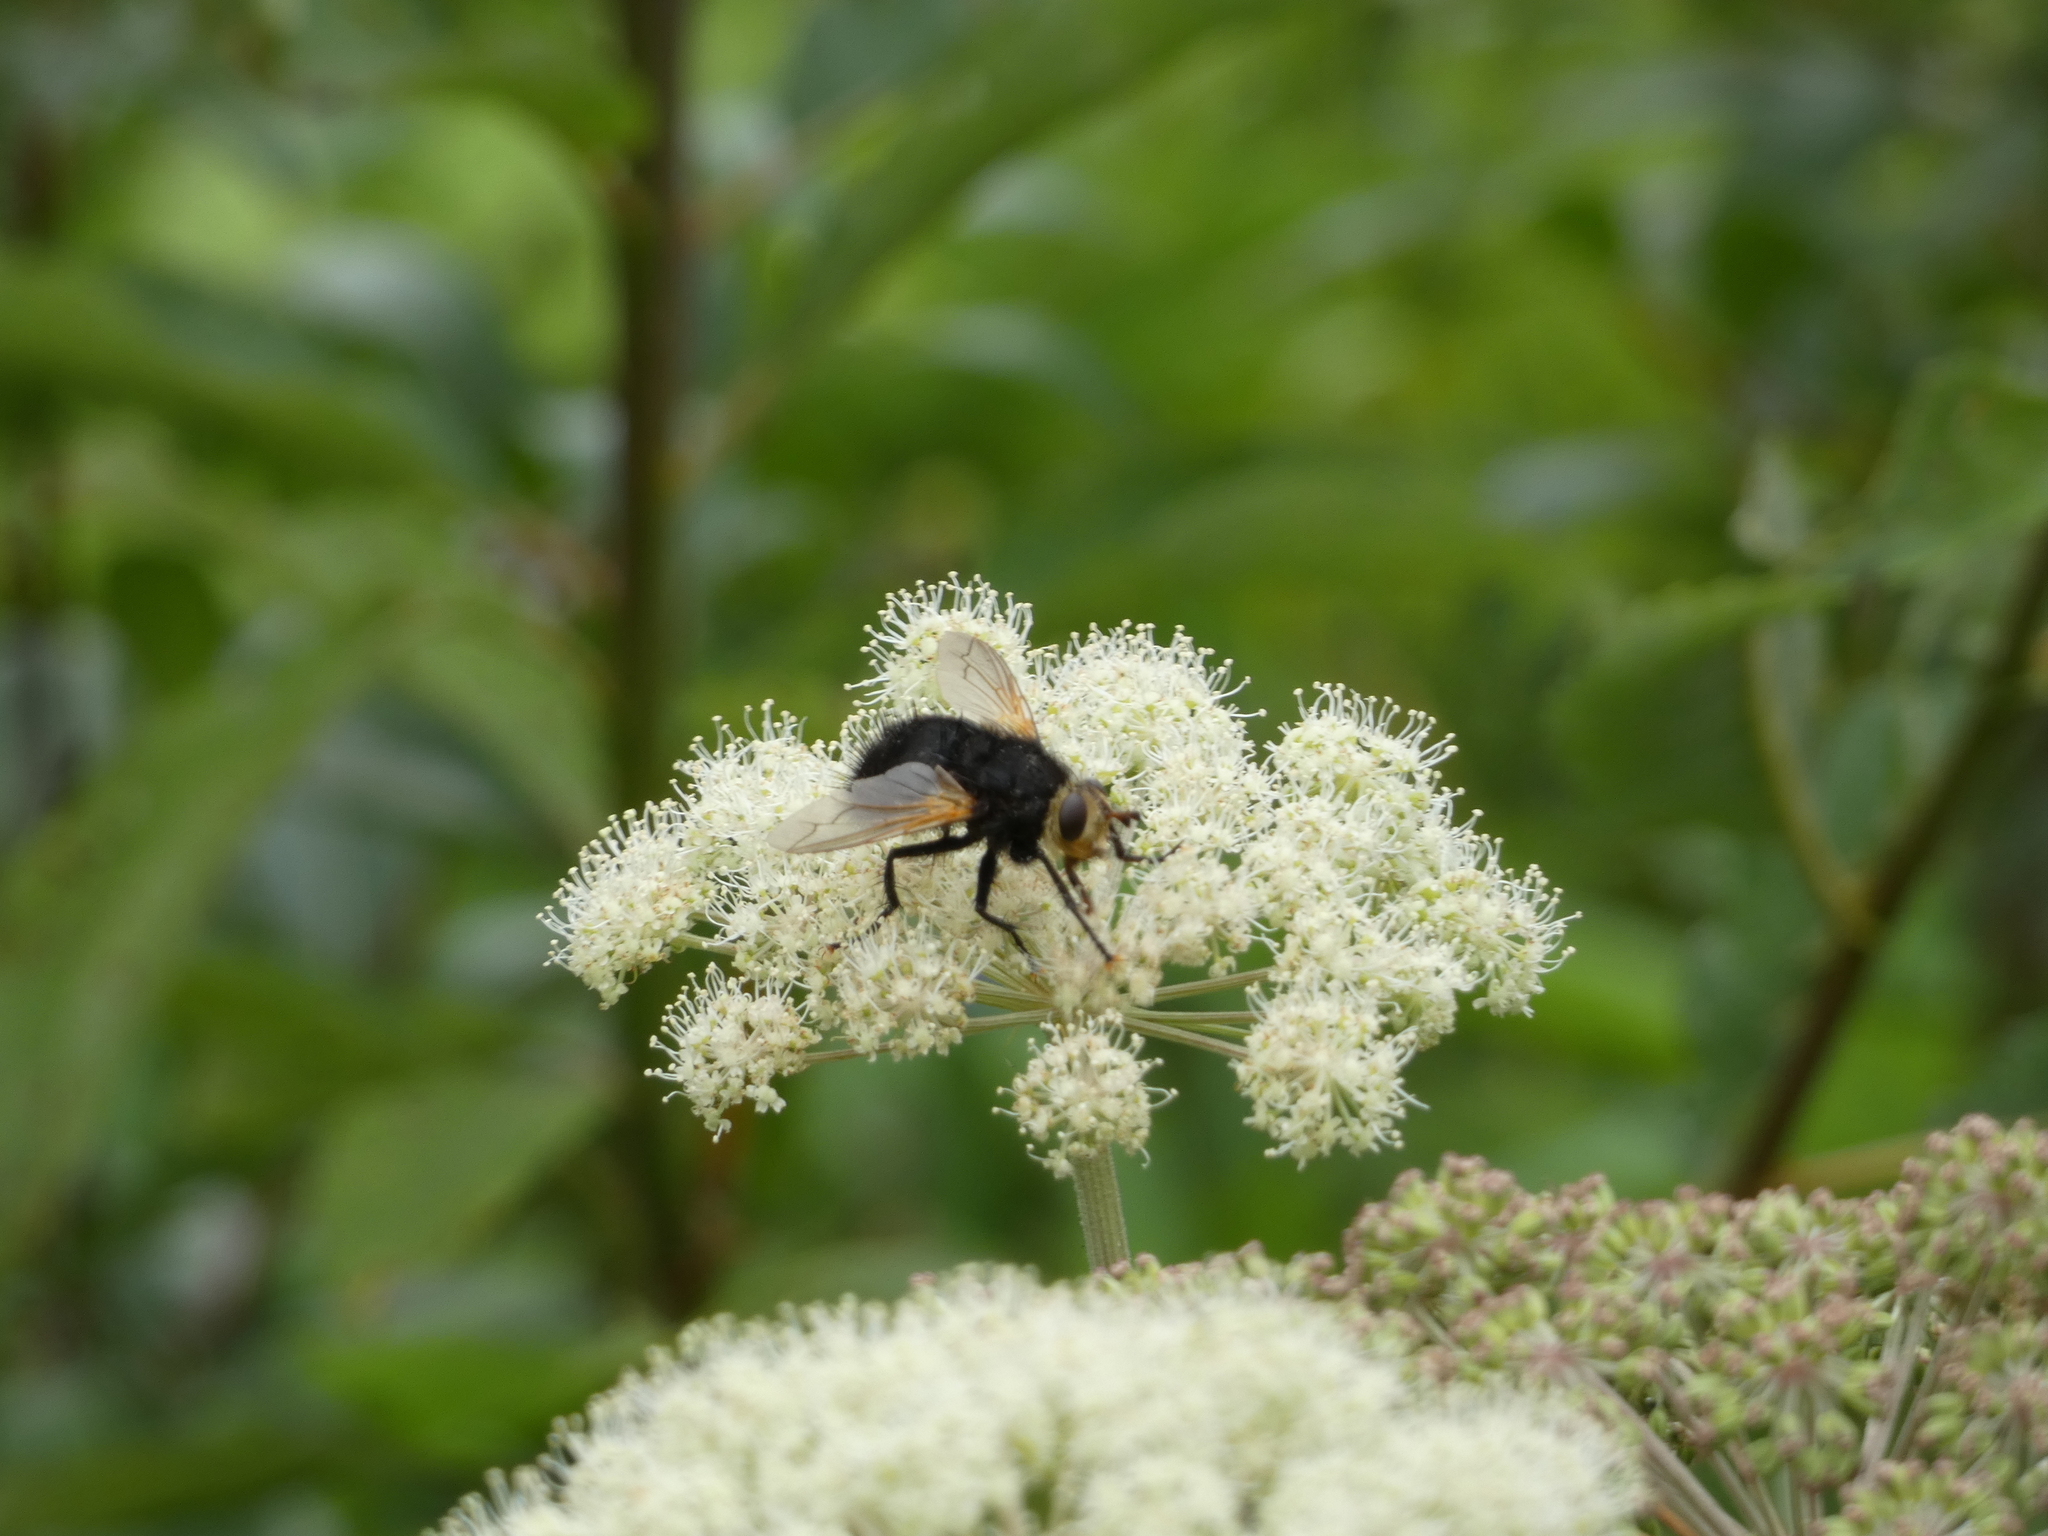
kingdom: Animalia
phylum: Arthropoda
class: Insecta
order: Diptera
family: Tachinidae
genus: Tachina
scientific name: Tachina grossa
